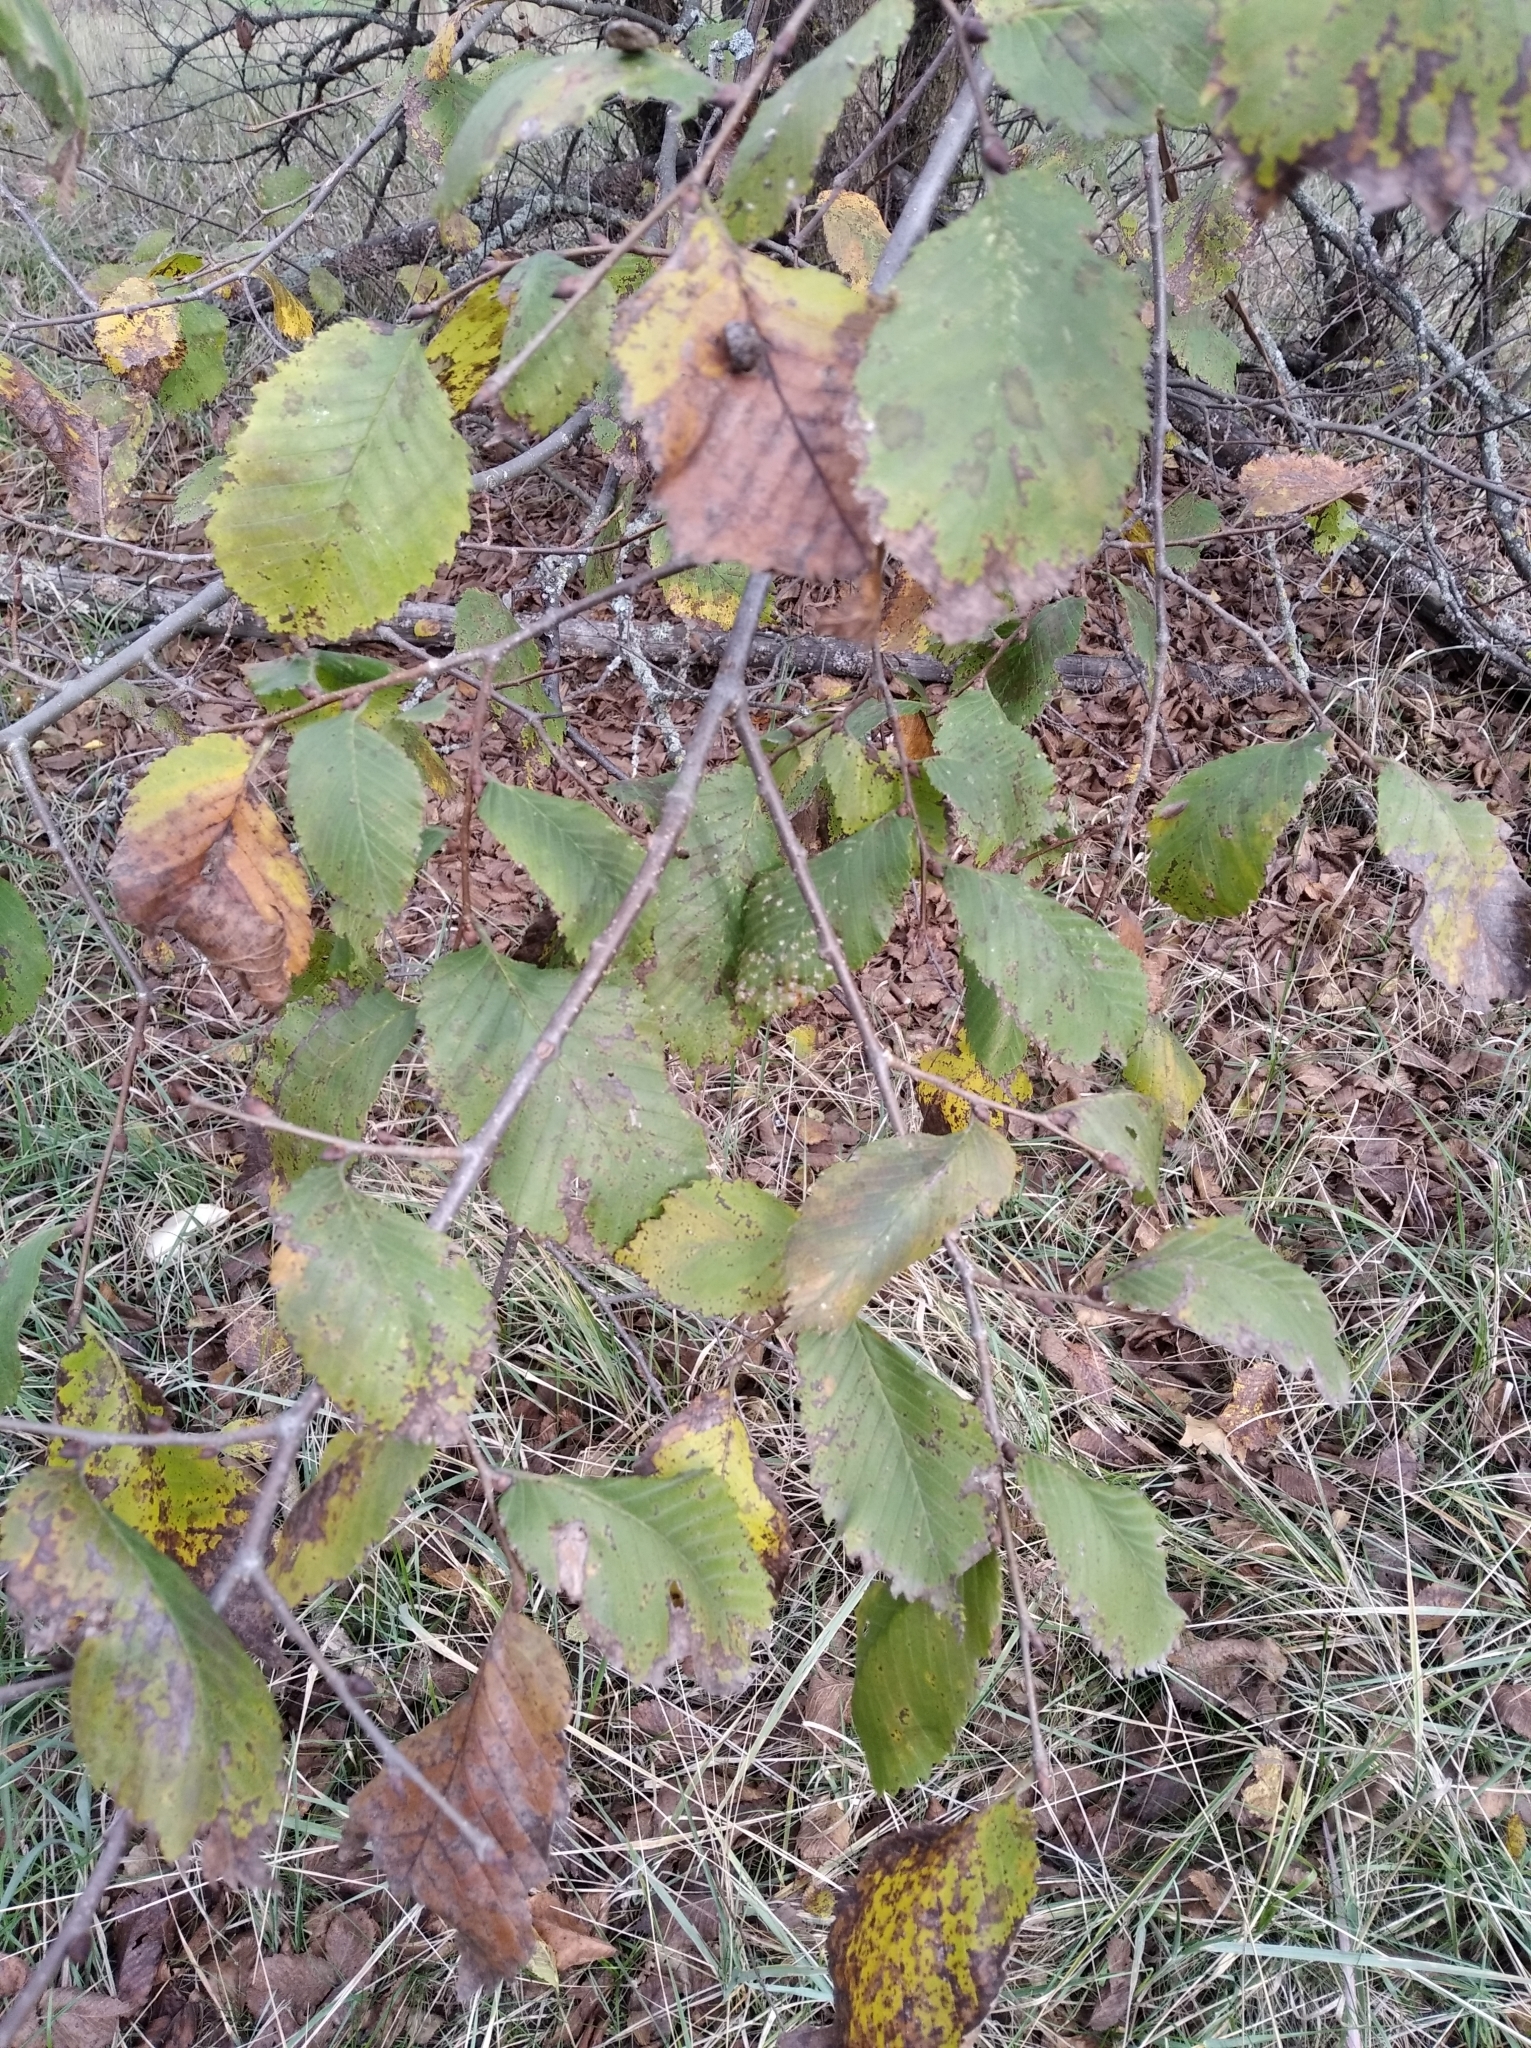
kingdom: Plantae
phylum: Tracheophyta
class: Magnoliopsida
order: Rosales
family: Ulmaceae
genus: Ulmus
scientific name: Ulmus laevis
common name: European white-elm
